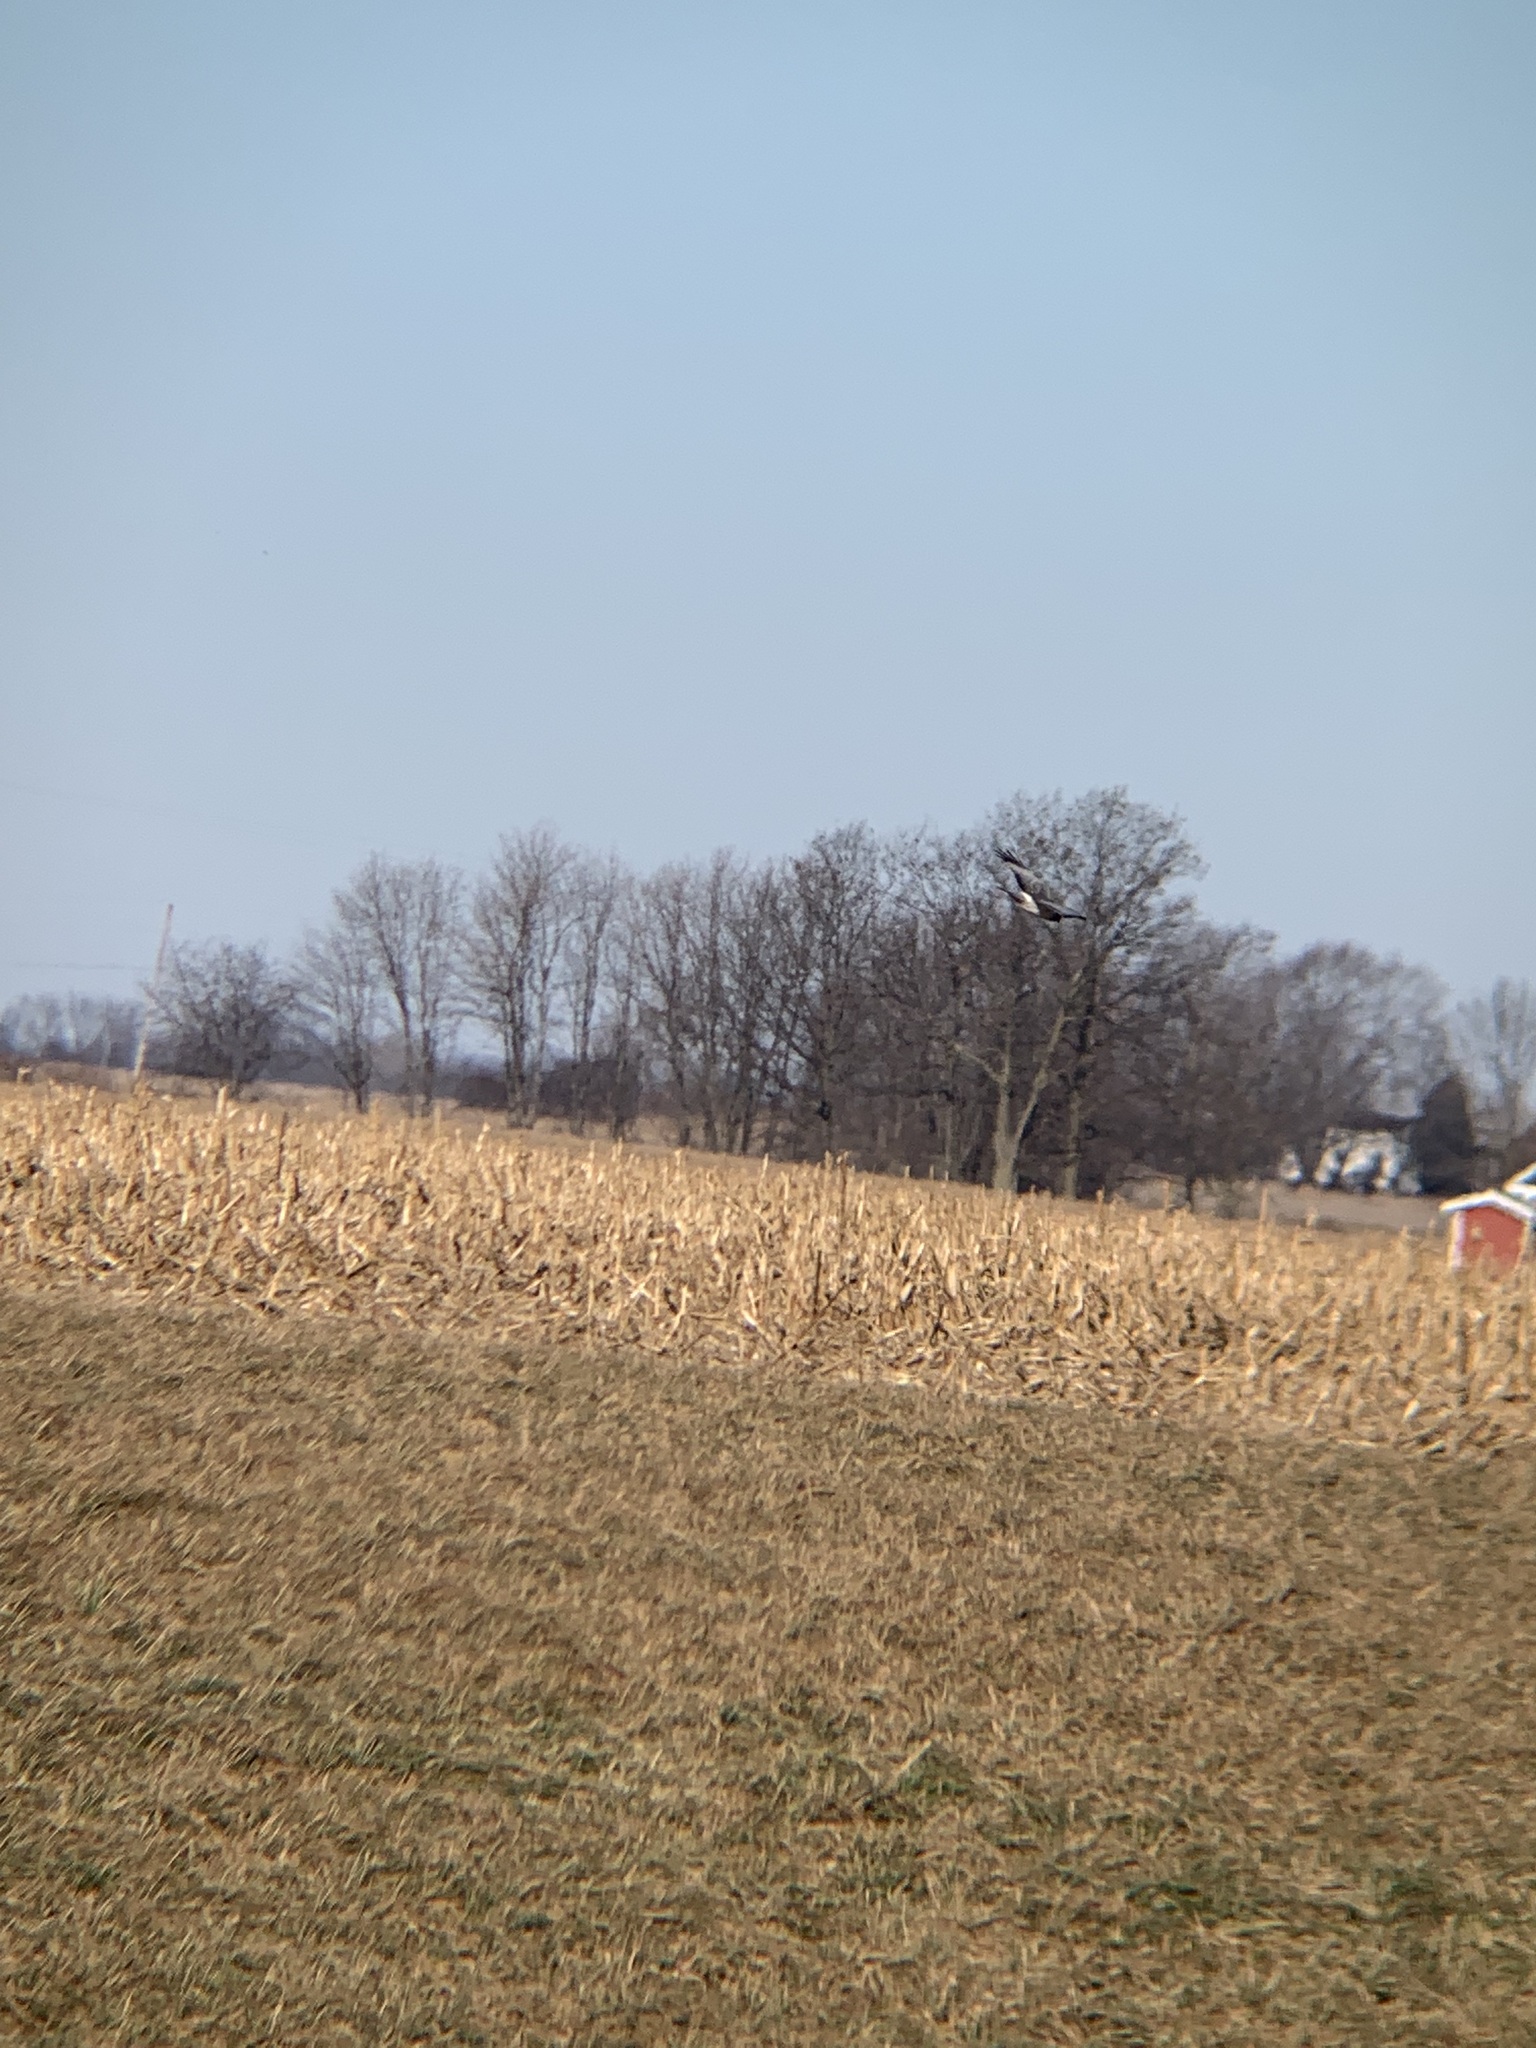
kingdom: Animalia
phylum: Chordata
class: Aves
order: Accipitriformes
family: Accipitridae
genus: Circus
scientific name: Circus cyaneus
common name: Hen harrier
